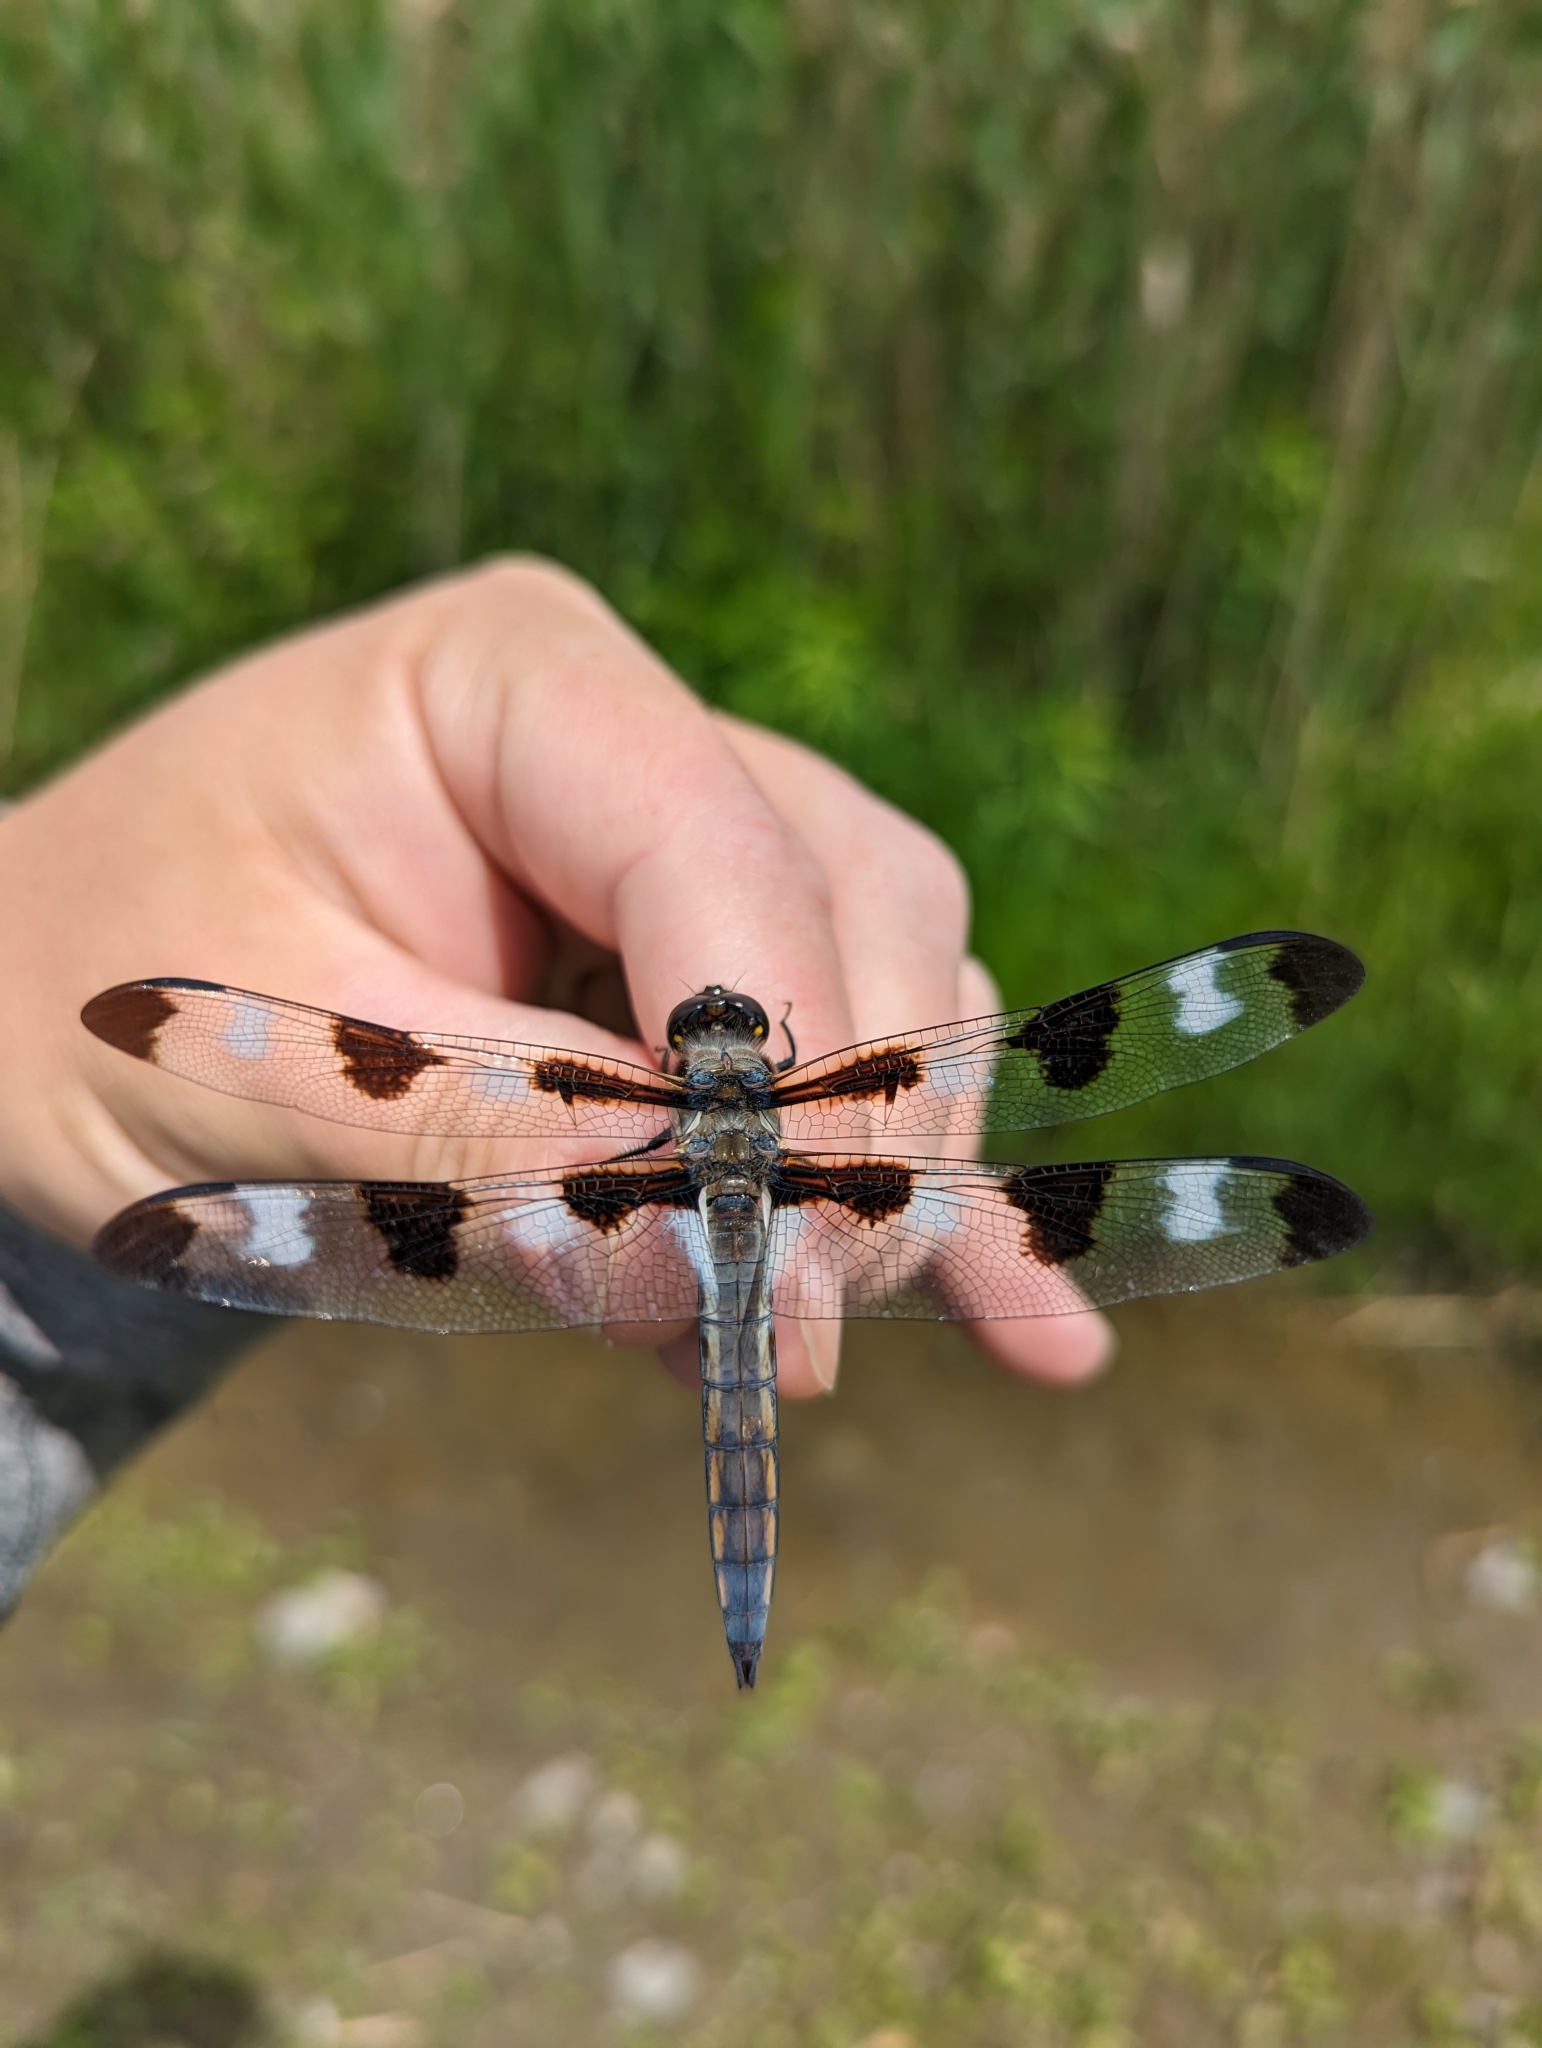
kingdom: Animalia
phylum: Arthropoda
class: Insecta
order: Odonata
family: Libellulidae
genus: Libellula
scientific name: Libellula pulchella
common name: Twelve-spotted skimmer
